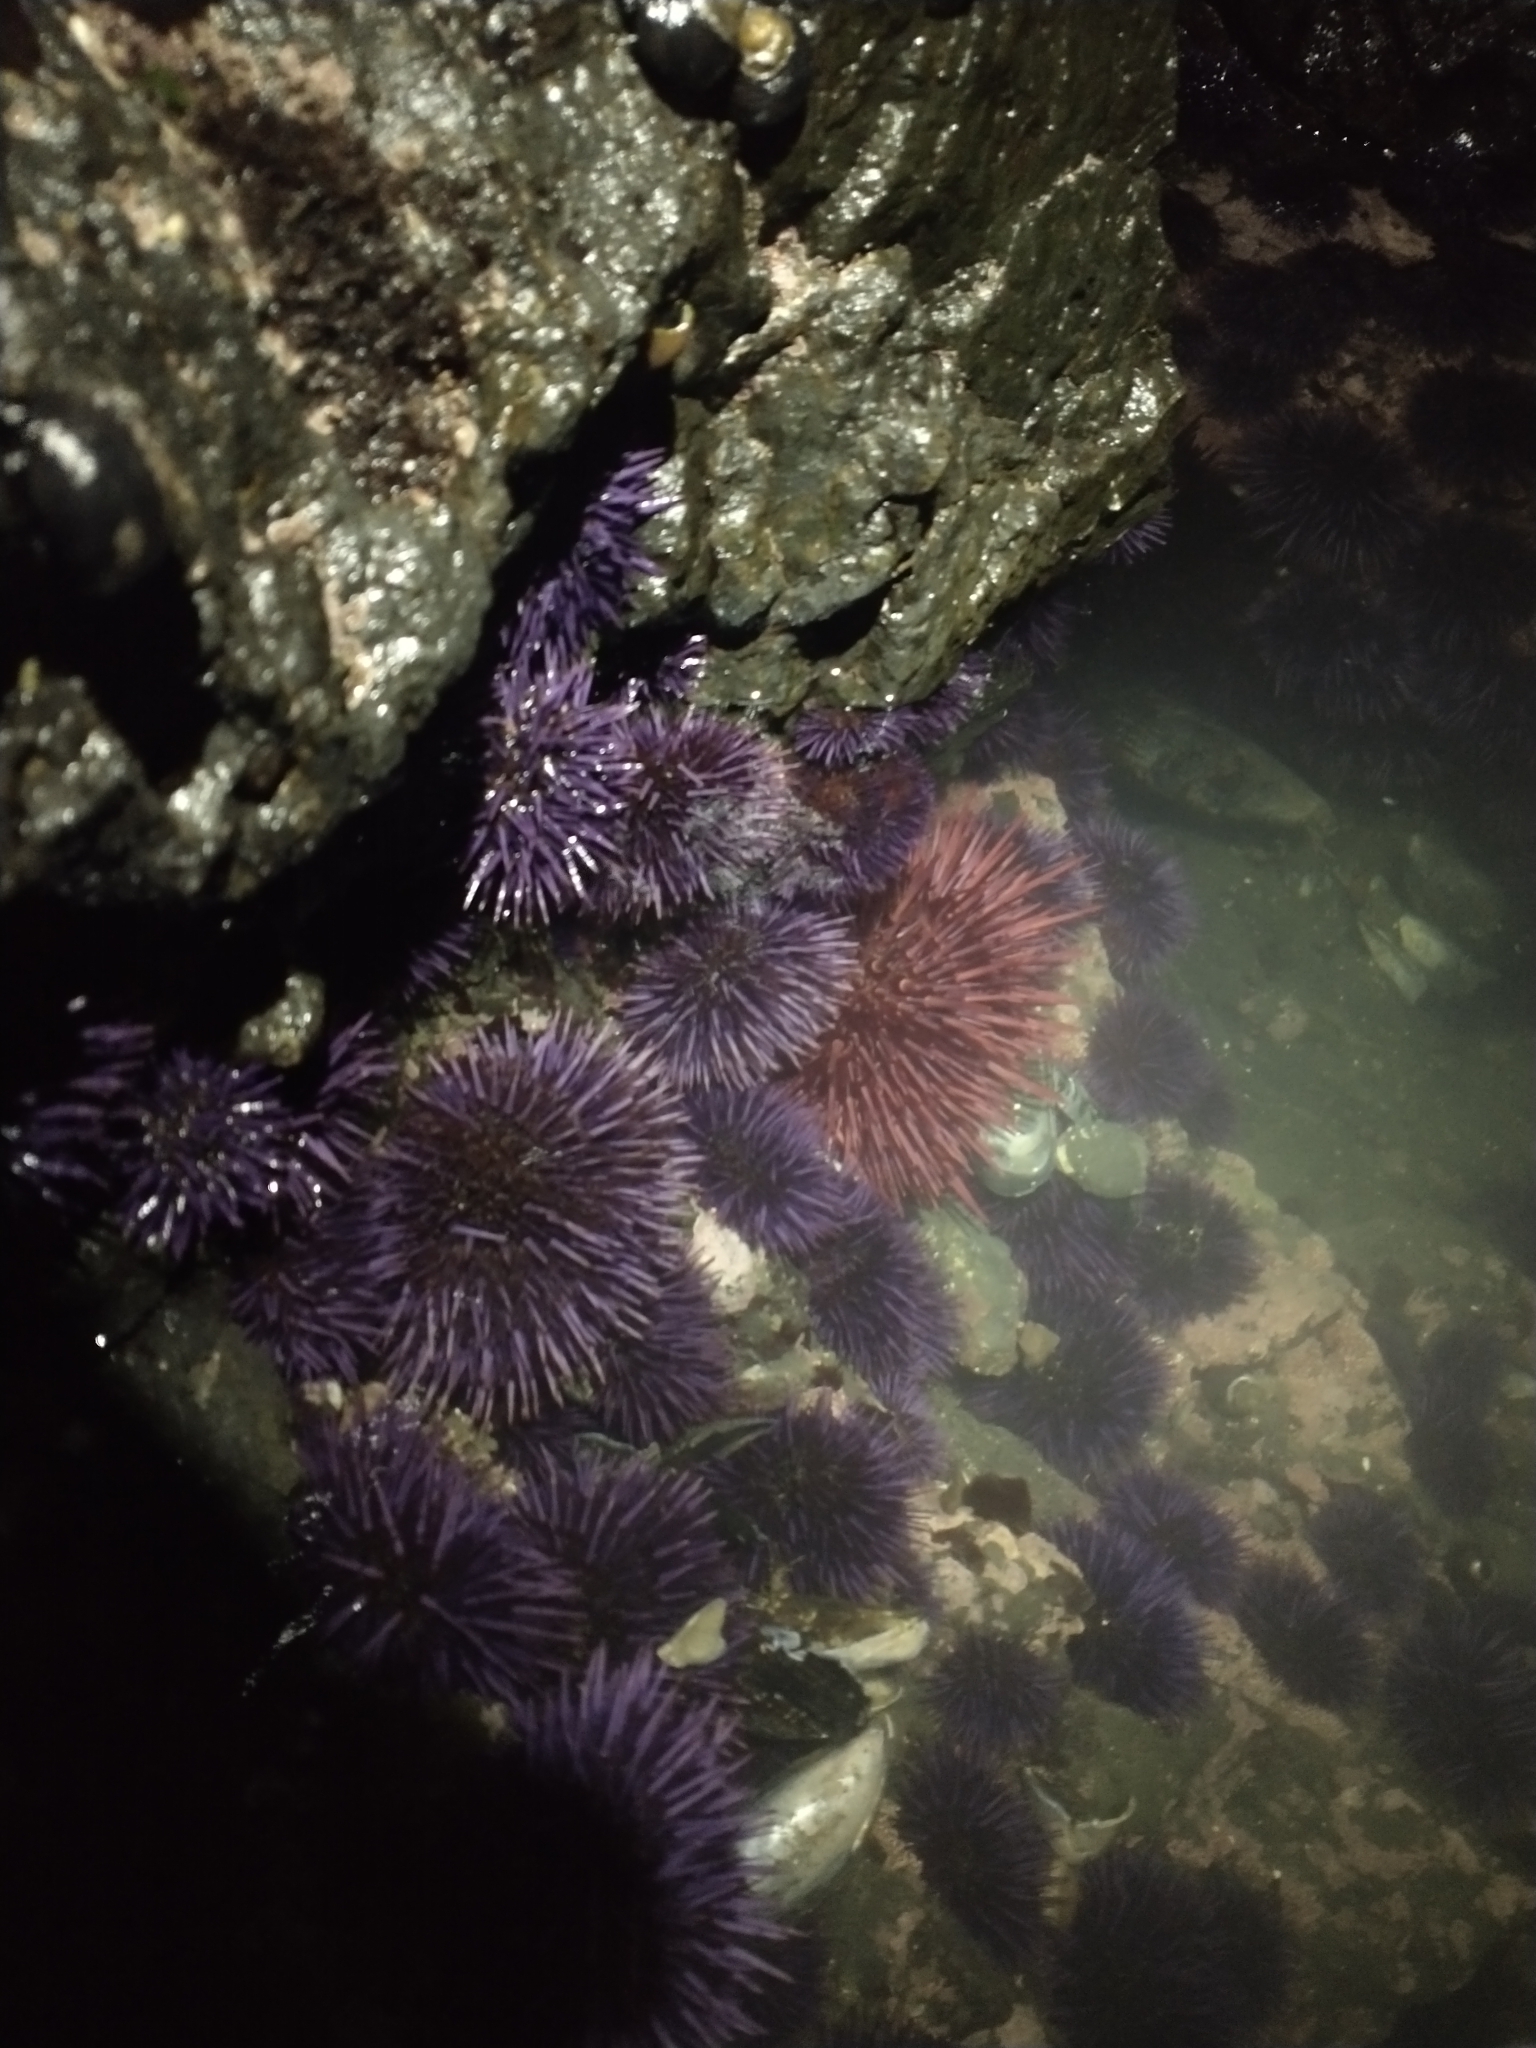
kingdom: Animalia
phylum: Echinodermata
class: Echinoidea
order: Camarodonta
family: Strongylocentrotidae
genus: Mesocentrotus
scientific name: Mesocentrotus franciscanus
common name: Red sea urchin
